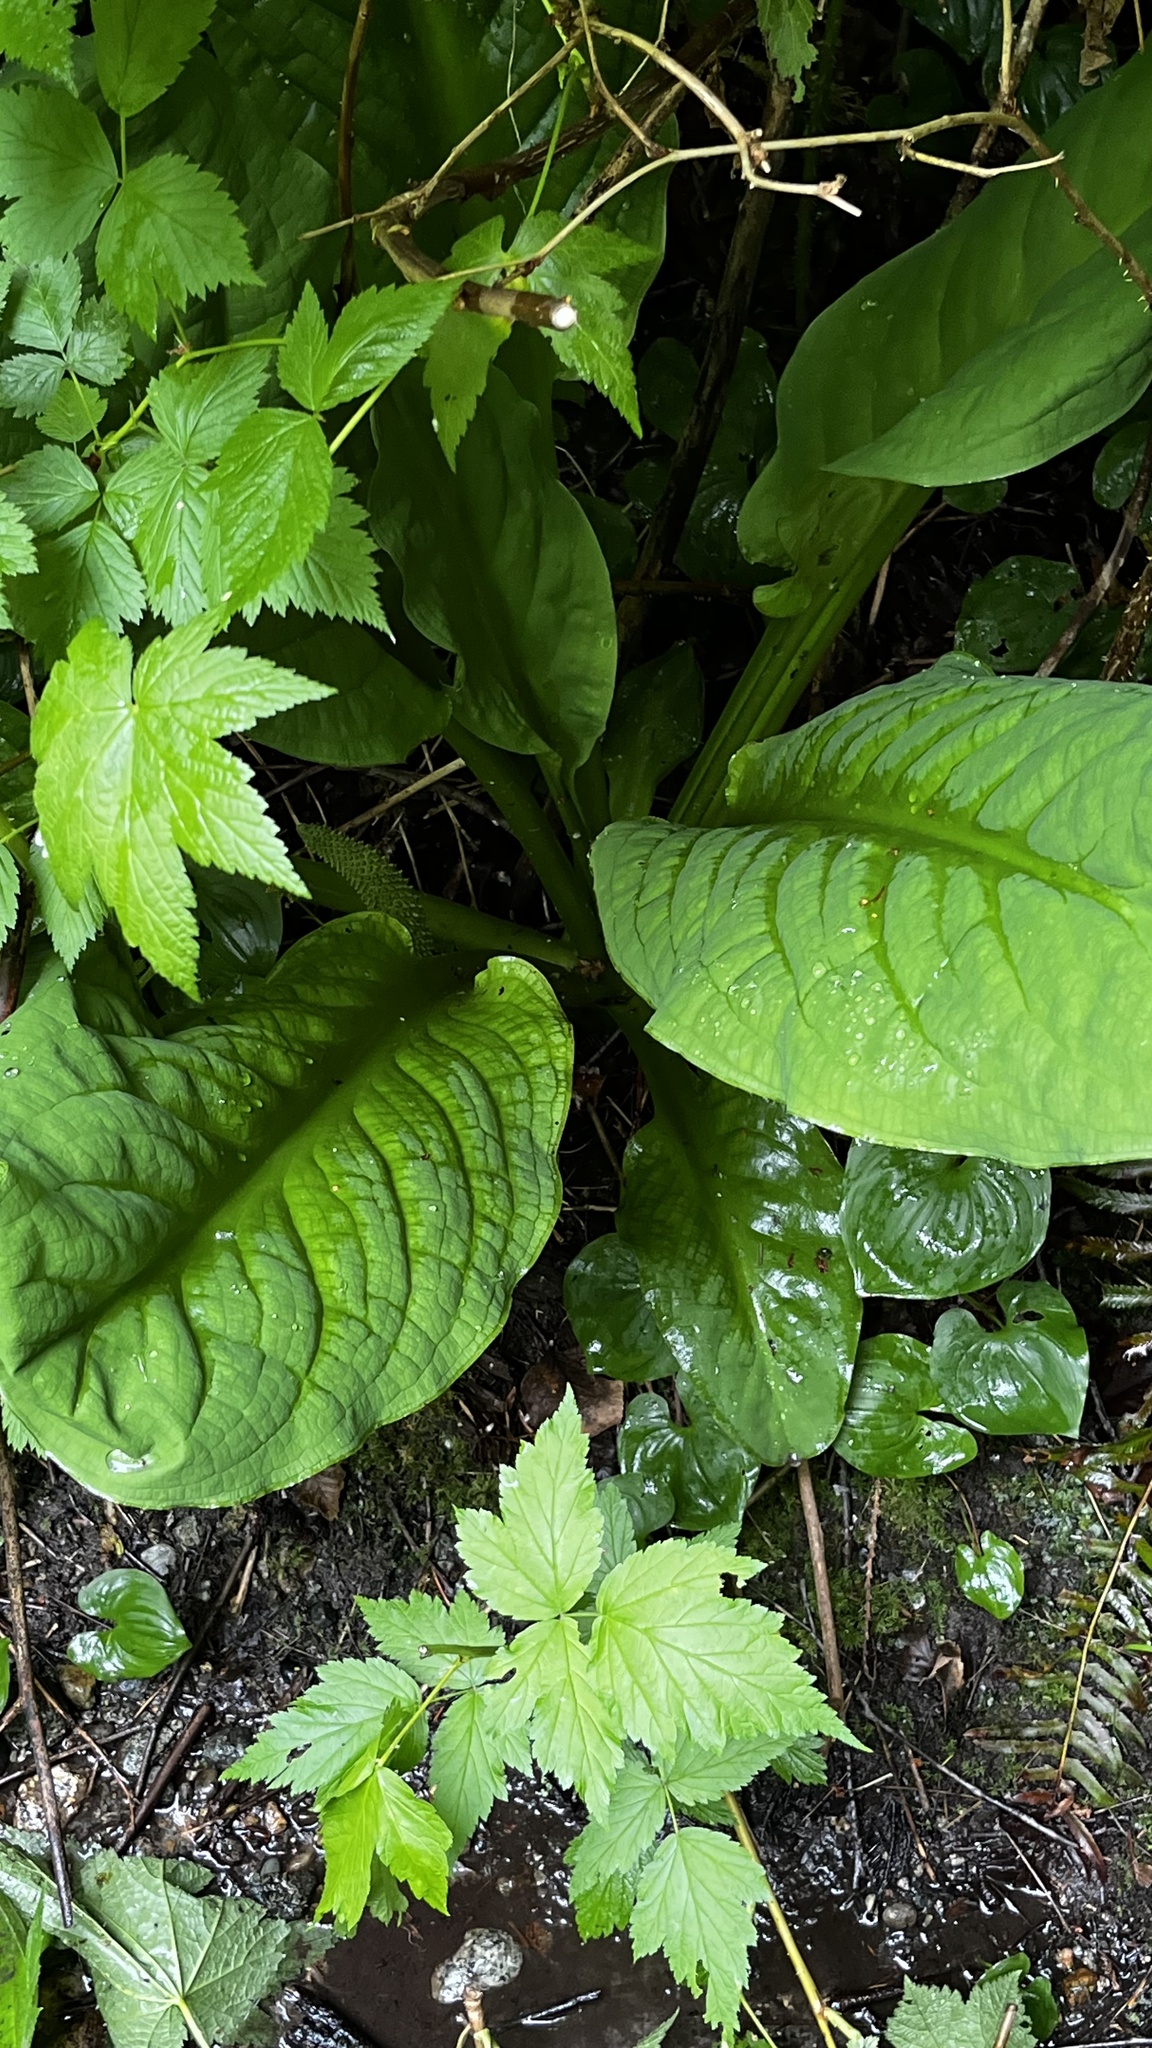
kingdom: Plantae
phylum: Tracheophyta
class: Liliopsida
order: Alismatales
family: Araceae
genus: Lysichiton
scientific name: Lysichiton americanus
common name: American skunk cabbage
